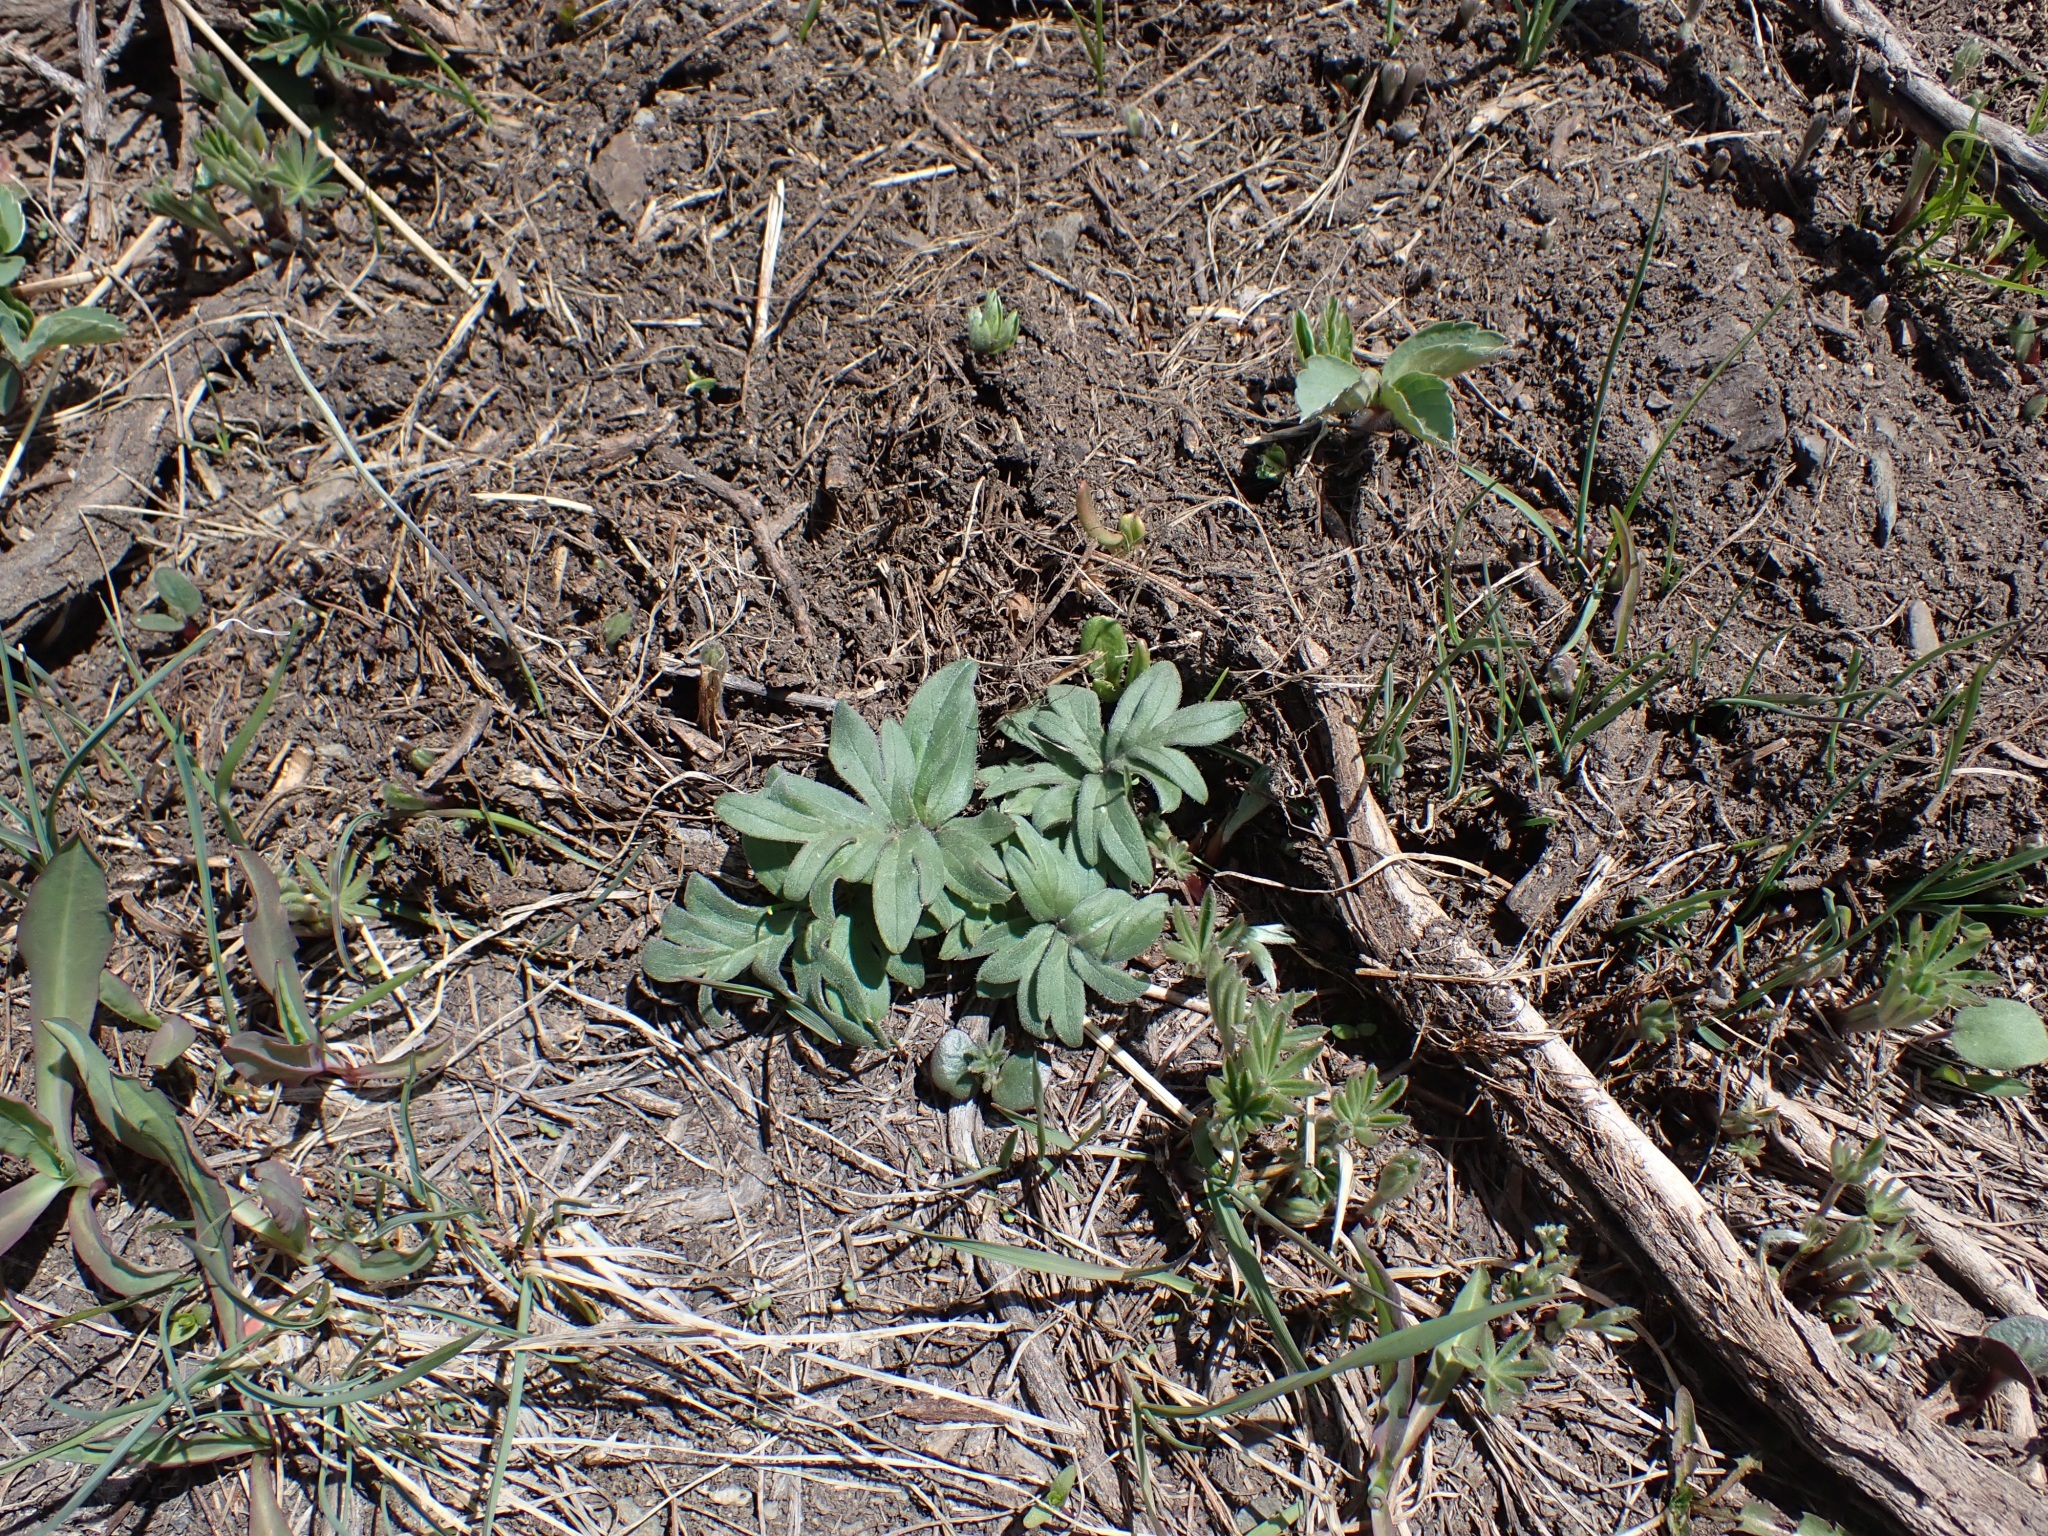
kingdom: Plantae
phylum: Tracheophyta
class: Magnoliopsida
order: Boraginales
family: Hydrophyllaceae
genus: Hydrophyllum
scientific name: Hydrophyllum capitatum
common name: Woollen-breeches
